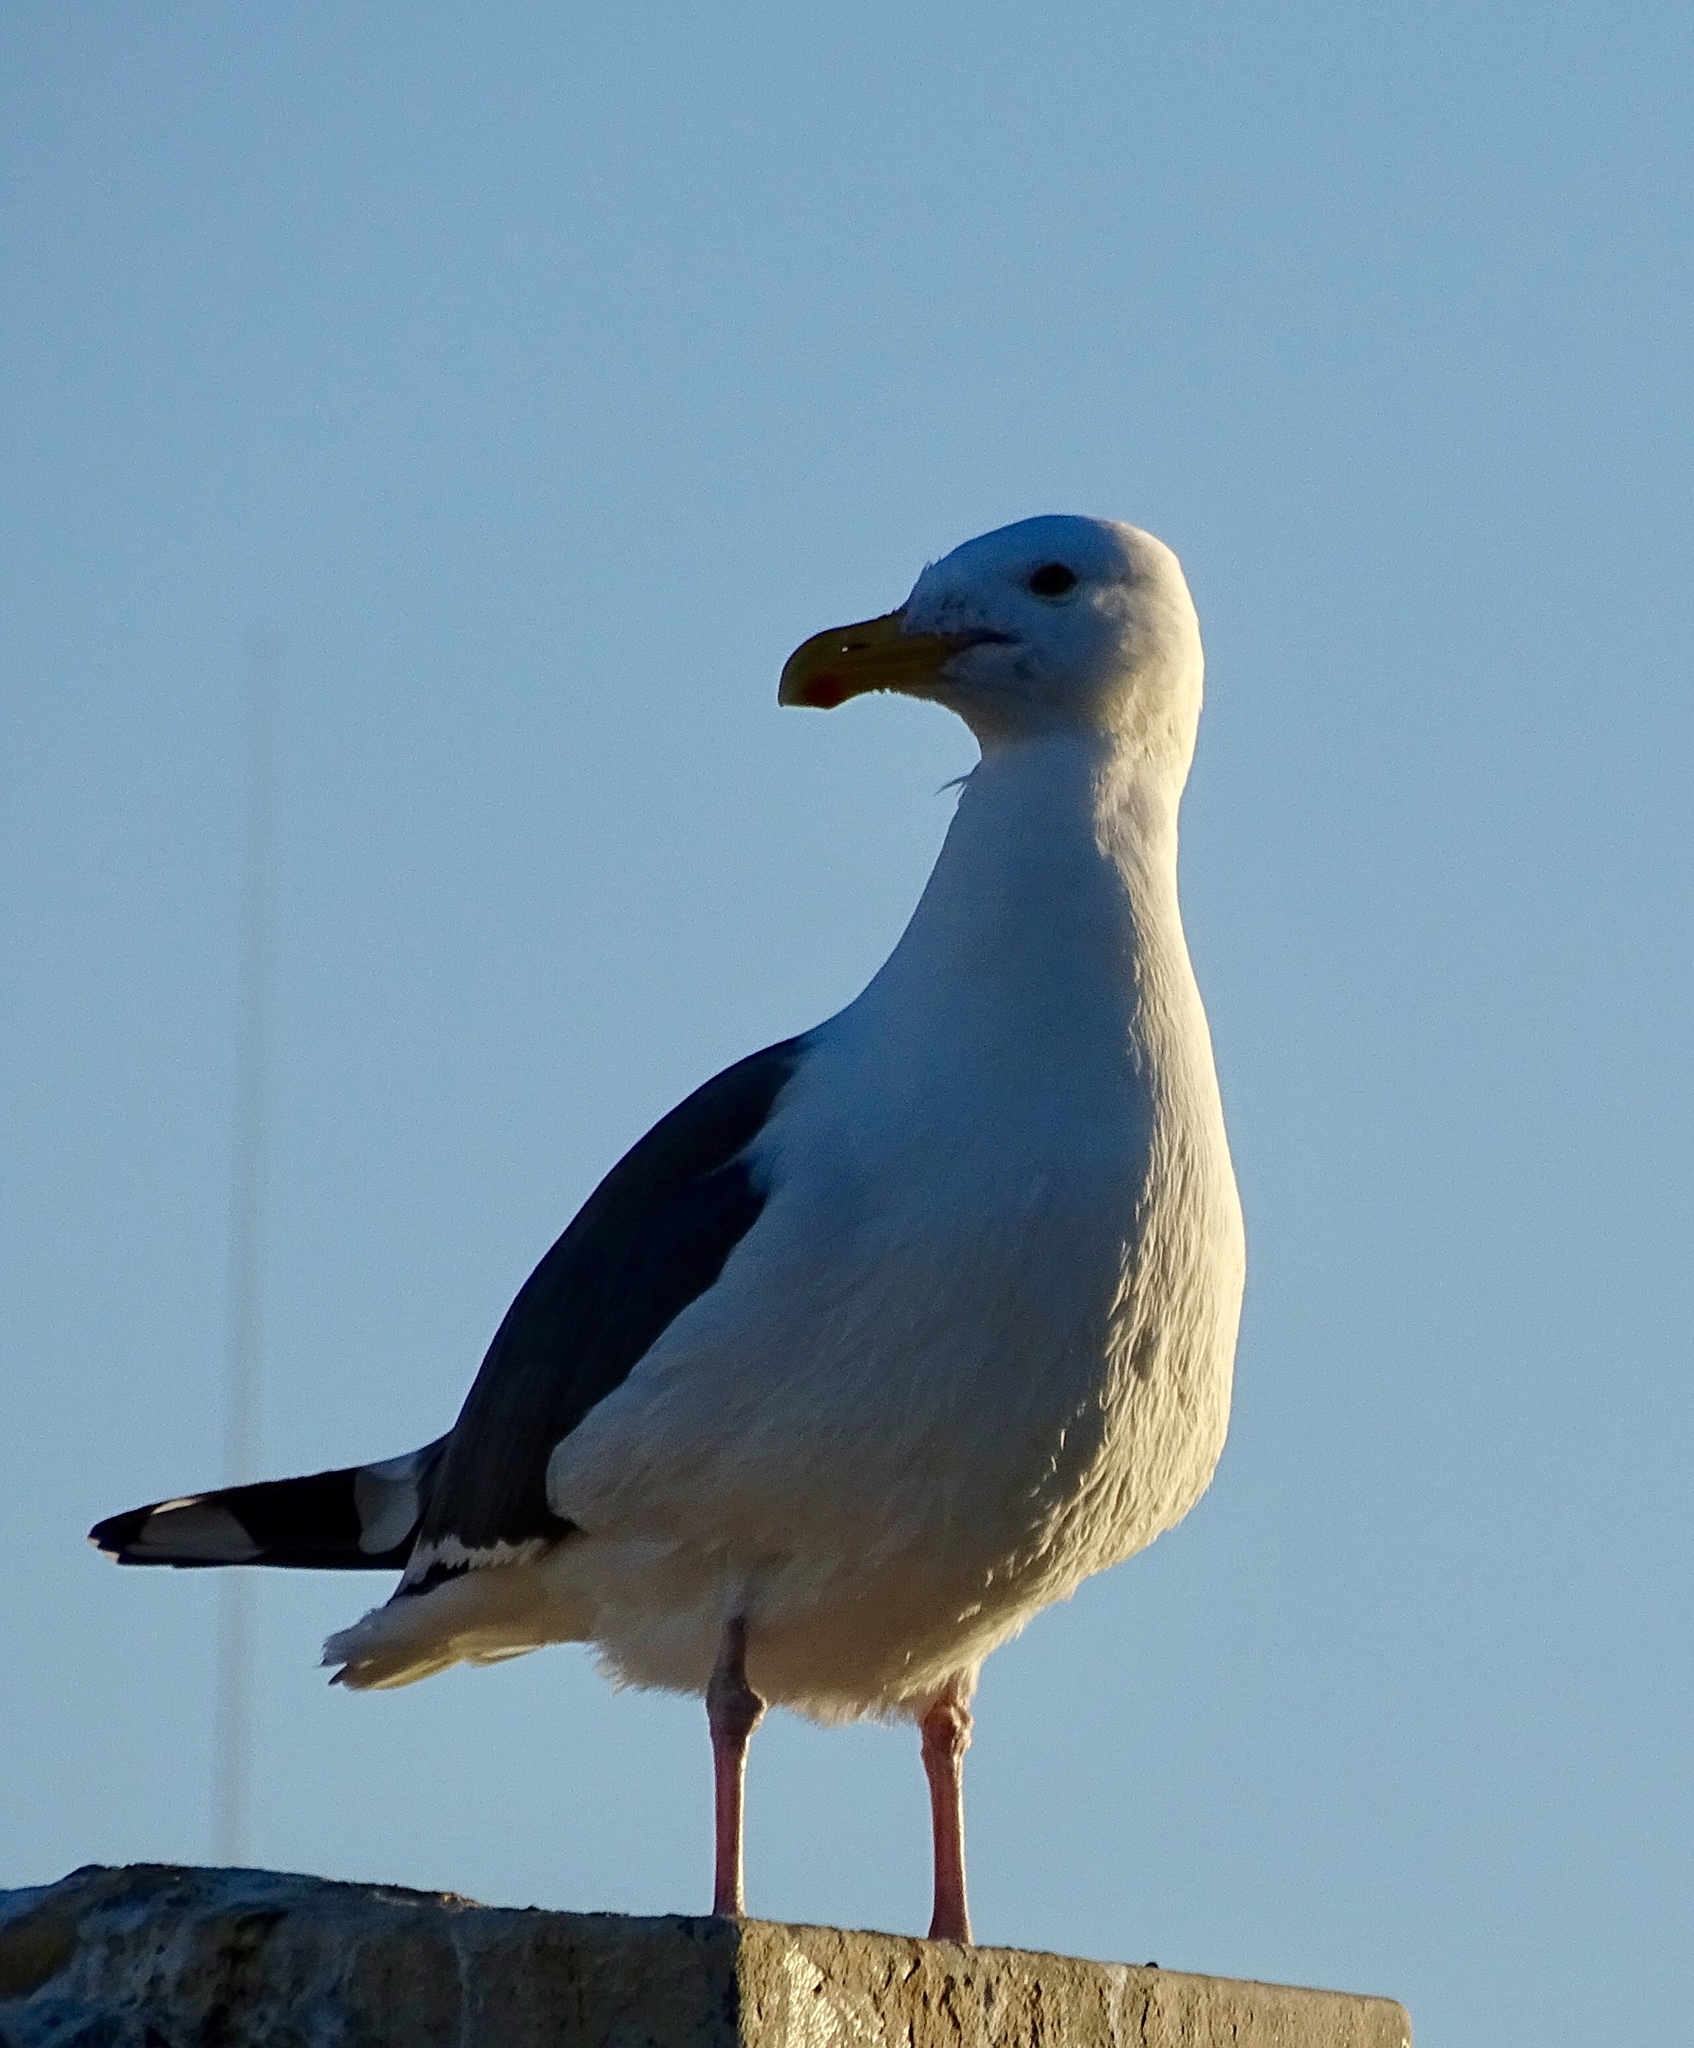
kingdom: Animalia
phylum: Chordata
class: Aves
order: Charadriiformes
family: Laridae
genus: Larus
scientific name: Larus occidentalis
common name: Western gull
